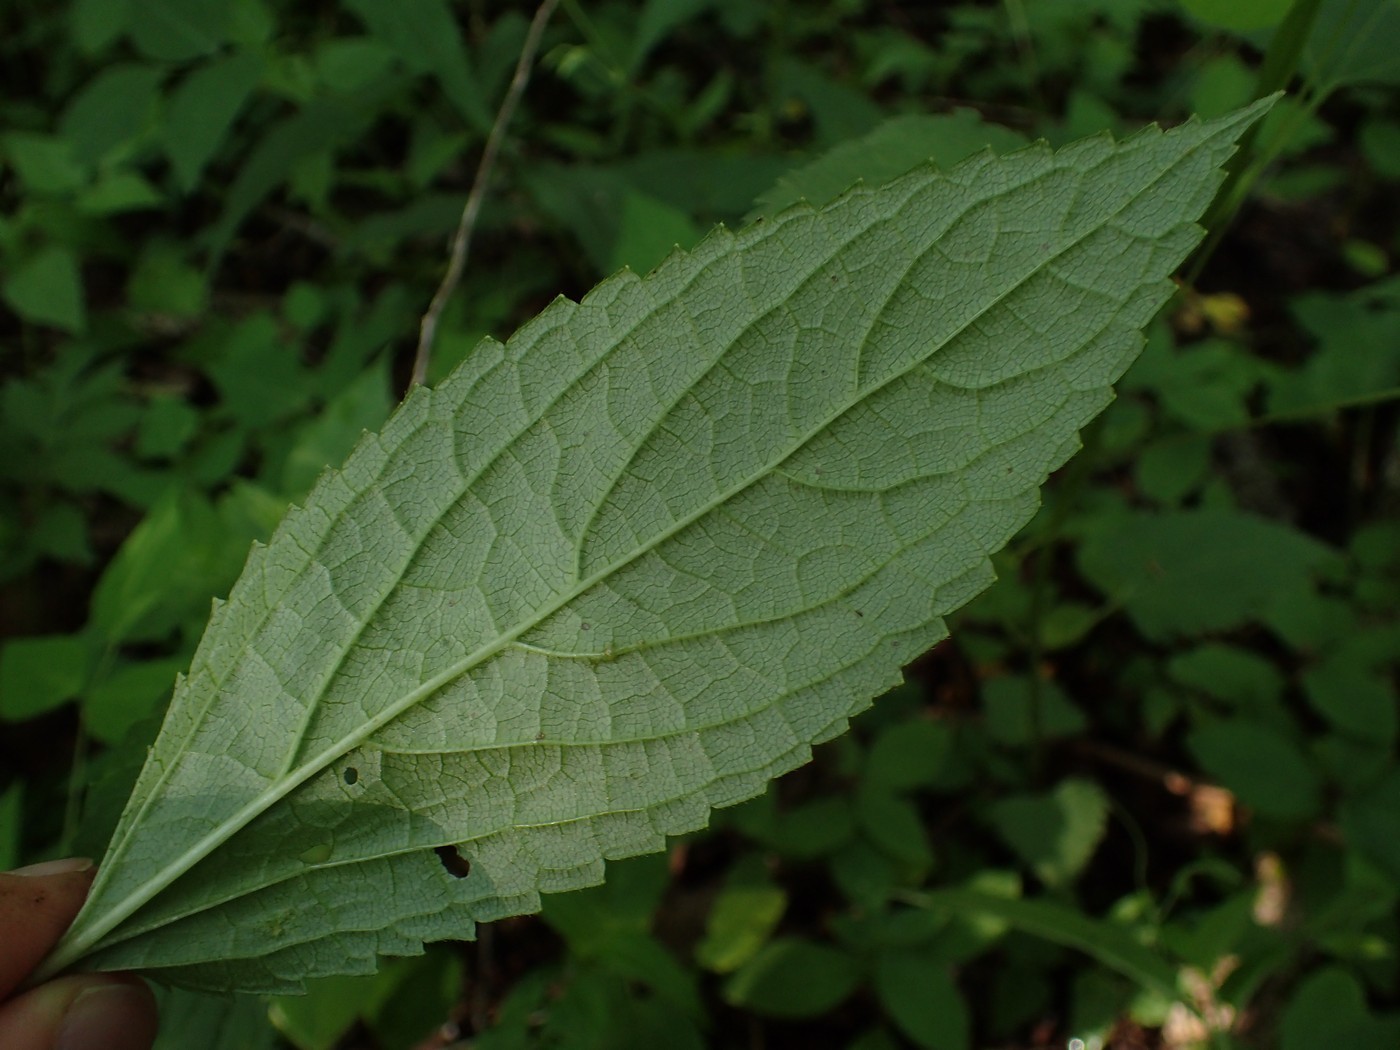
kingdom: Plantae
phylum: Tracheophyta
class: Magnoliopsida
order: Lamiales
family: Lamiaceae
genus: Stachys
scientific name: Stachys latidens
